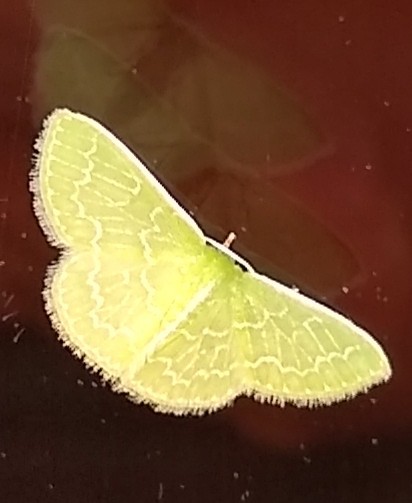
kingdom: Animalia
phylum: Arthropoda
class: Insecta
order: Lepidoptera
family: Geometridae
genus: Synchlora
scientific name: Synchlora frondaria
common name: Southern emerald
